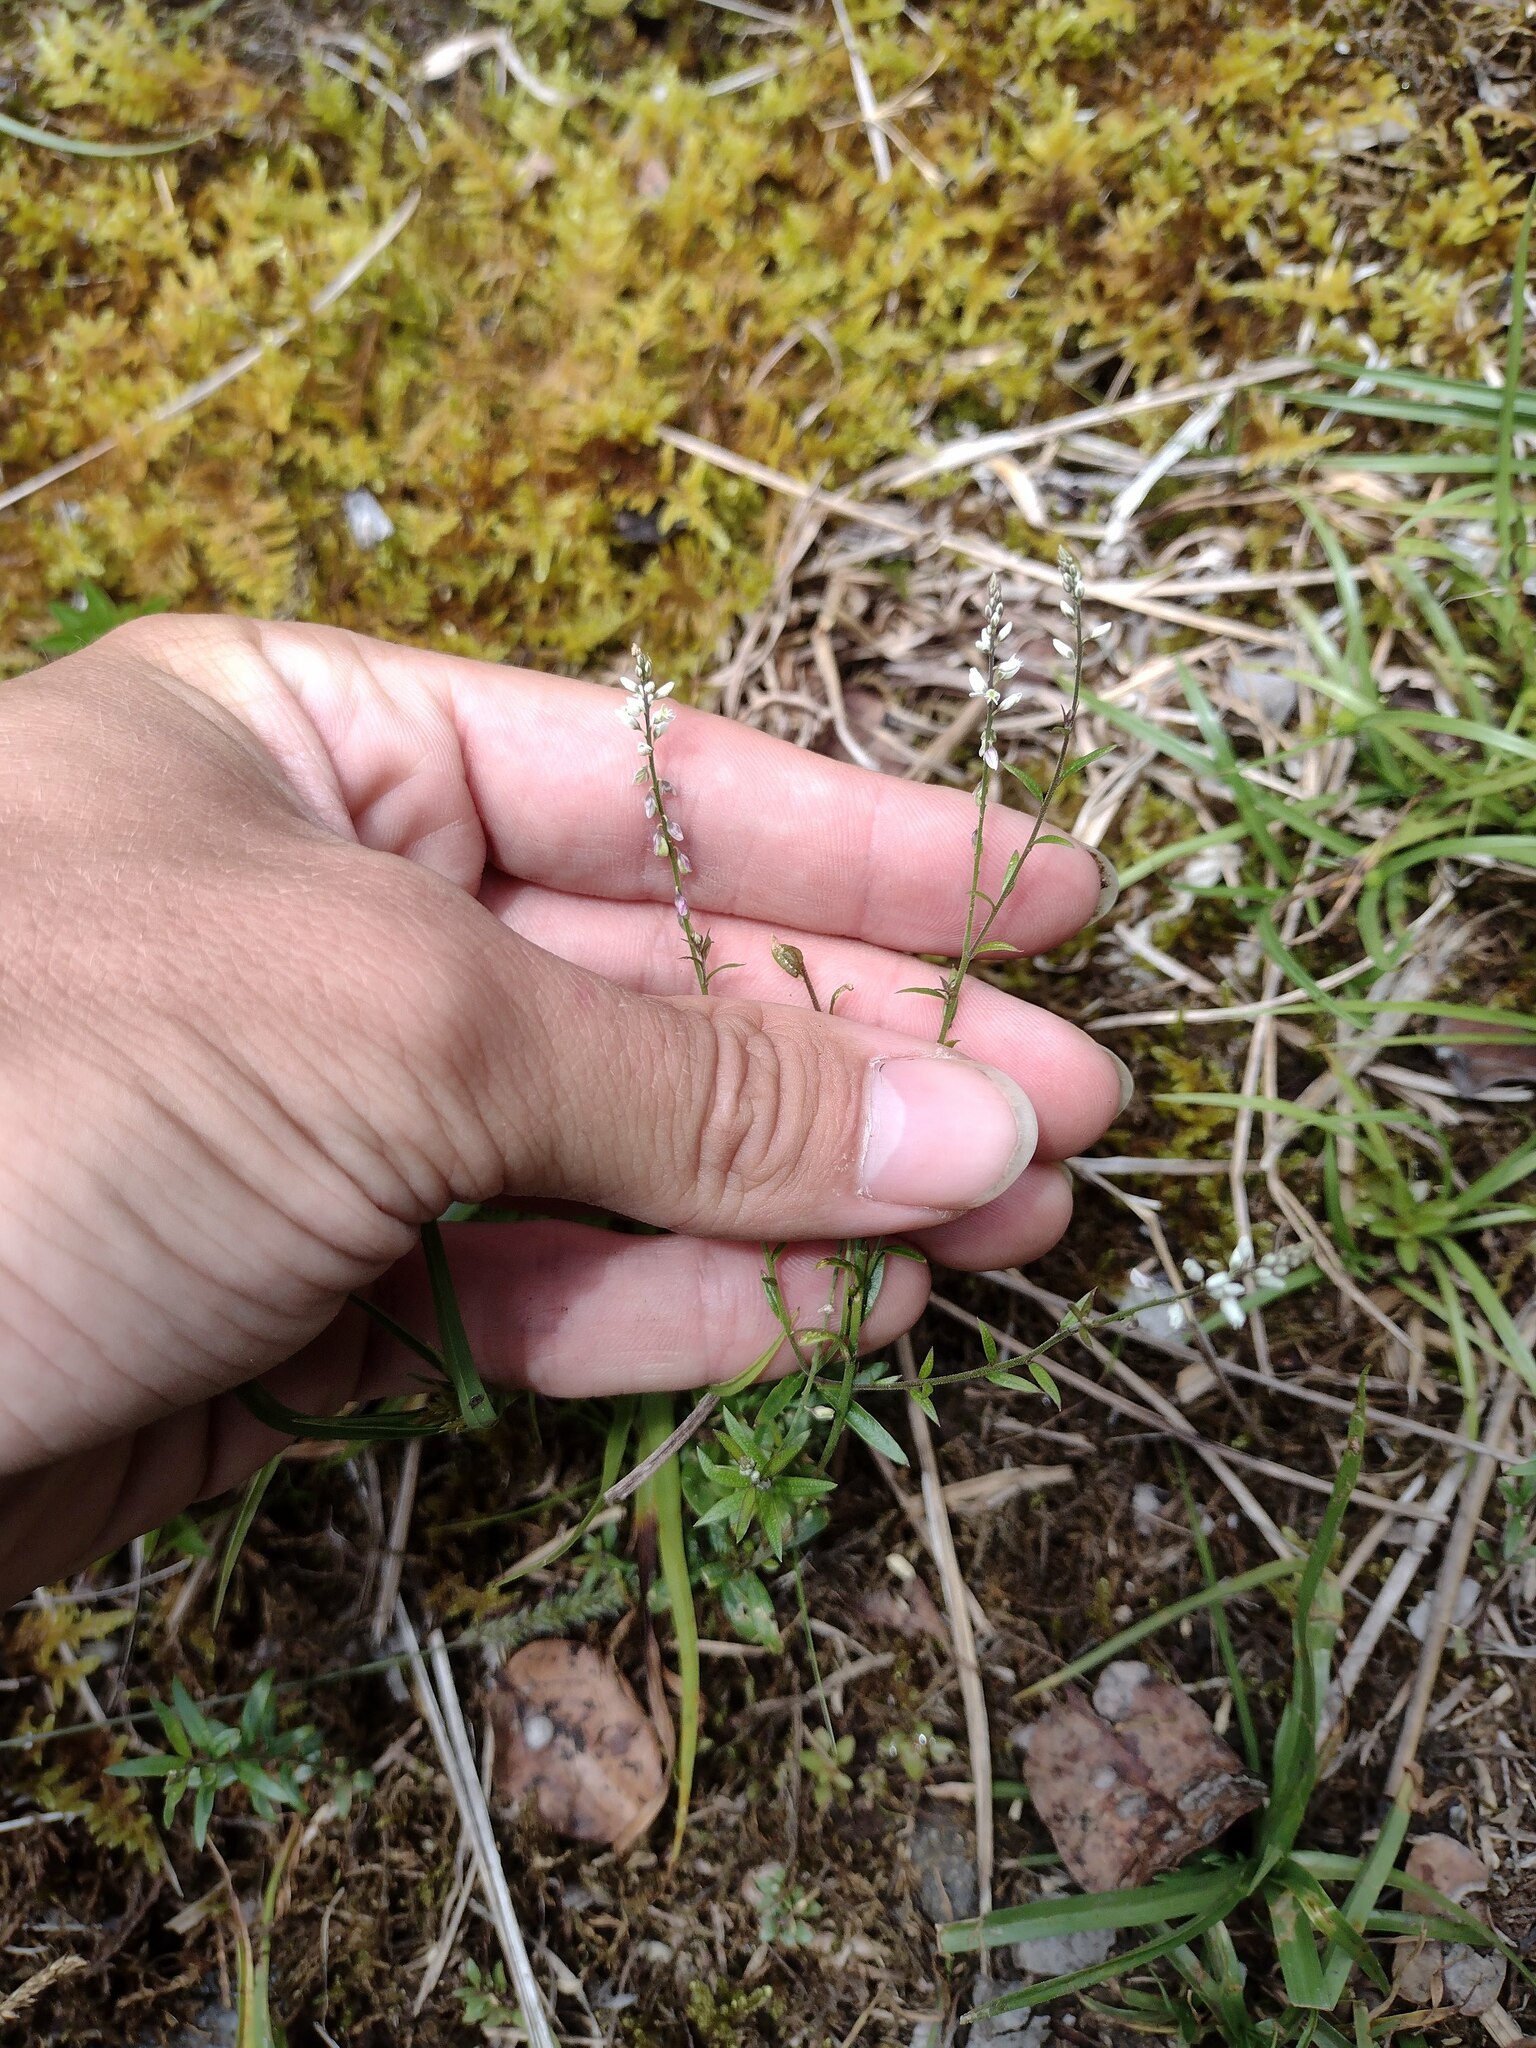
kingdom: Plantae
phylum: Tracheophyta
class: Magnoliopsida
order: Fabales
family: Polygalaceae
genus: Polygala
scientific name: Polygala paniculata
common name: Orosne
